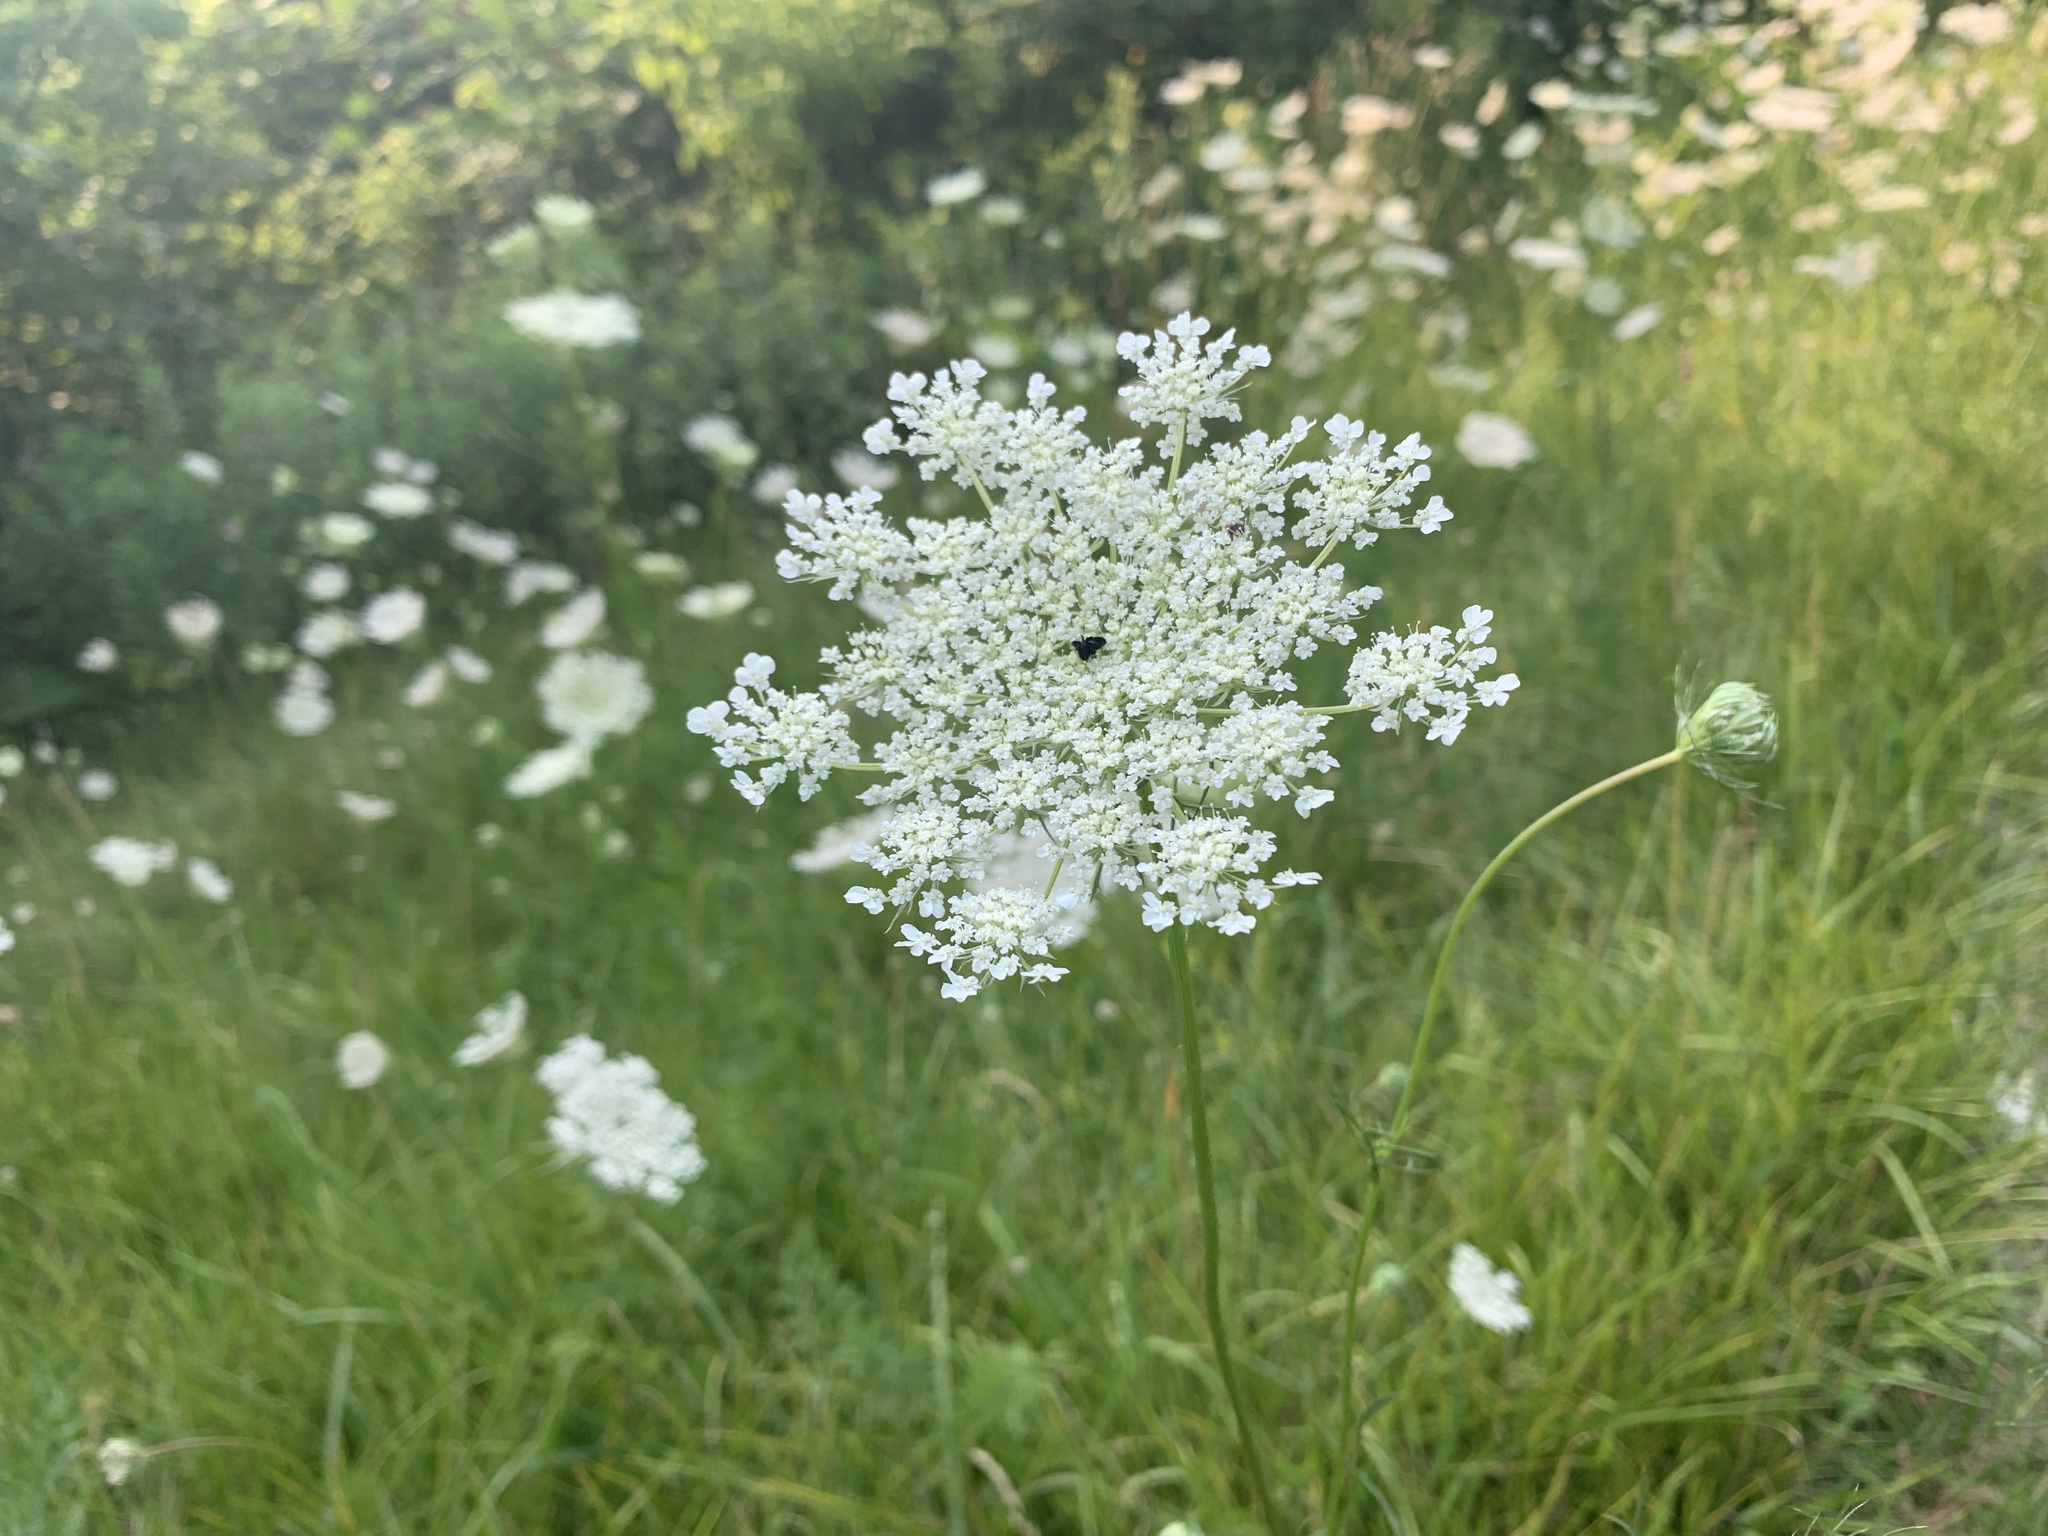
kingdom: Plantae
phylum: Tracheophyta
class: Magnoliopsida
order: Apiales
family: Apiaceae
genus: Daucus
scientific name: Daucus carota
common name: Wild carrot
